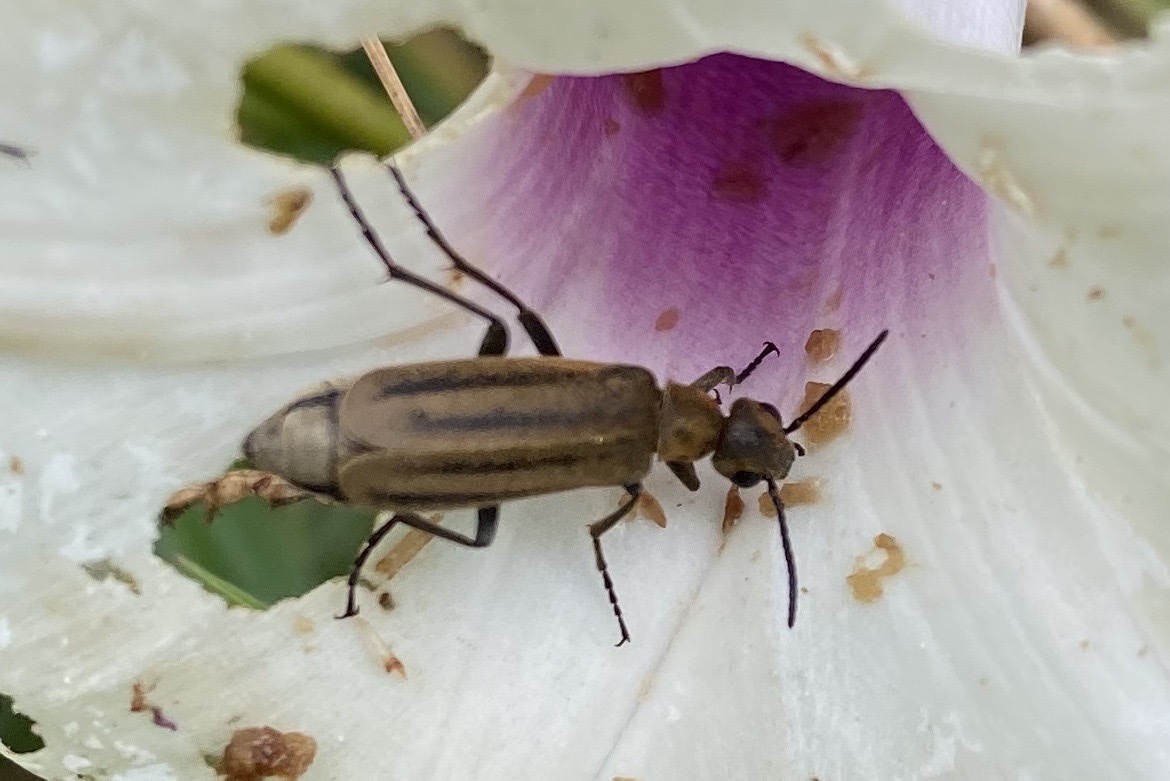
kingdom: Animalia
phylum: Arthropoda
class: Insecta
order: Coleoptera
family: Meloidae
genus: Epicauta
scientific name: Epicauta strigosa
